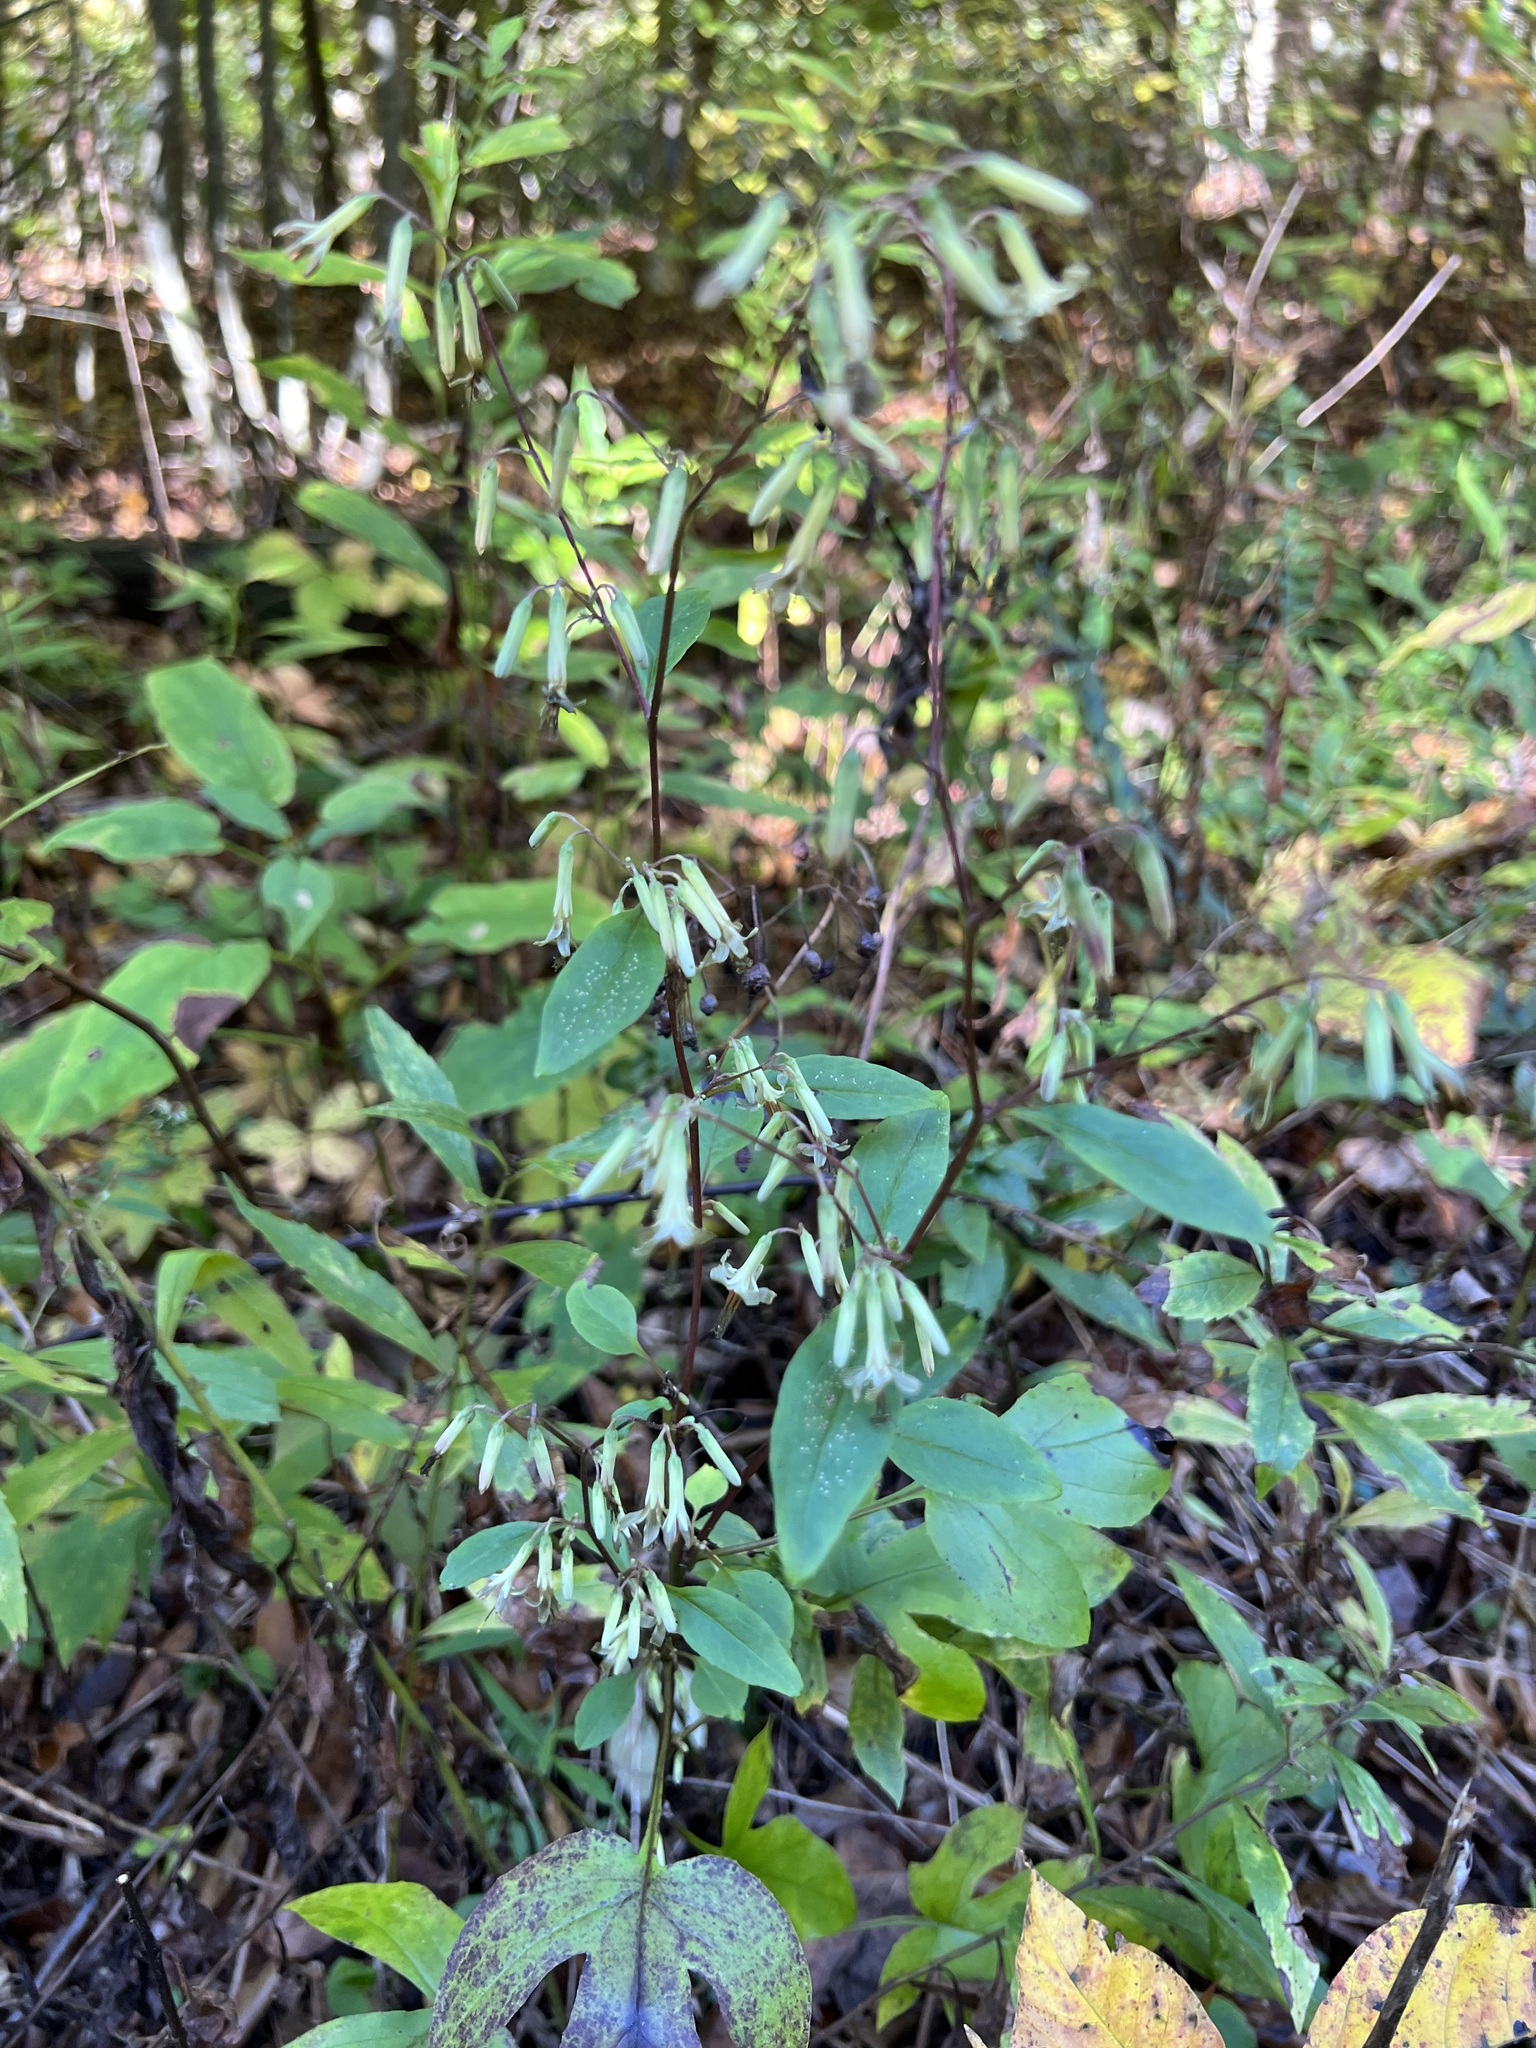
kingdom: Plantae
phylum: Tracheophyta
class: Magnoliopsida
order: Asterales
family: Asteraceae
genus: Nabalus
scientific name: Nabalus altissima
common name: Tall rattlesnakeroot
